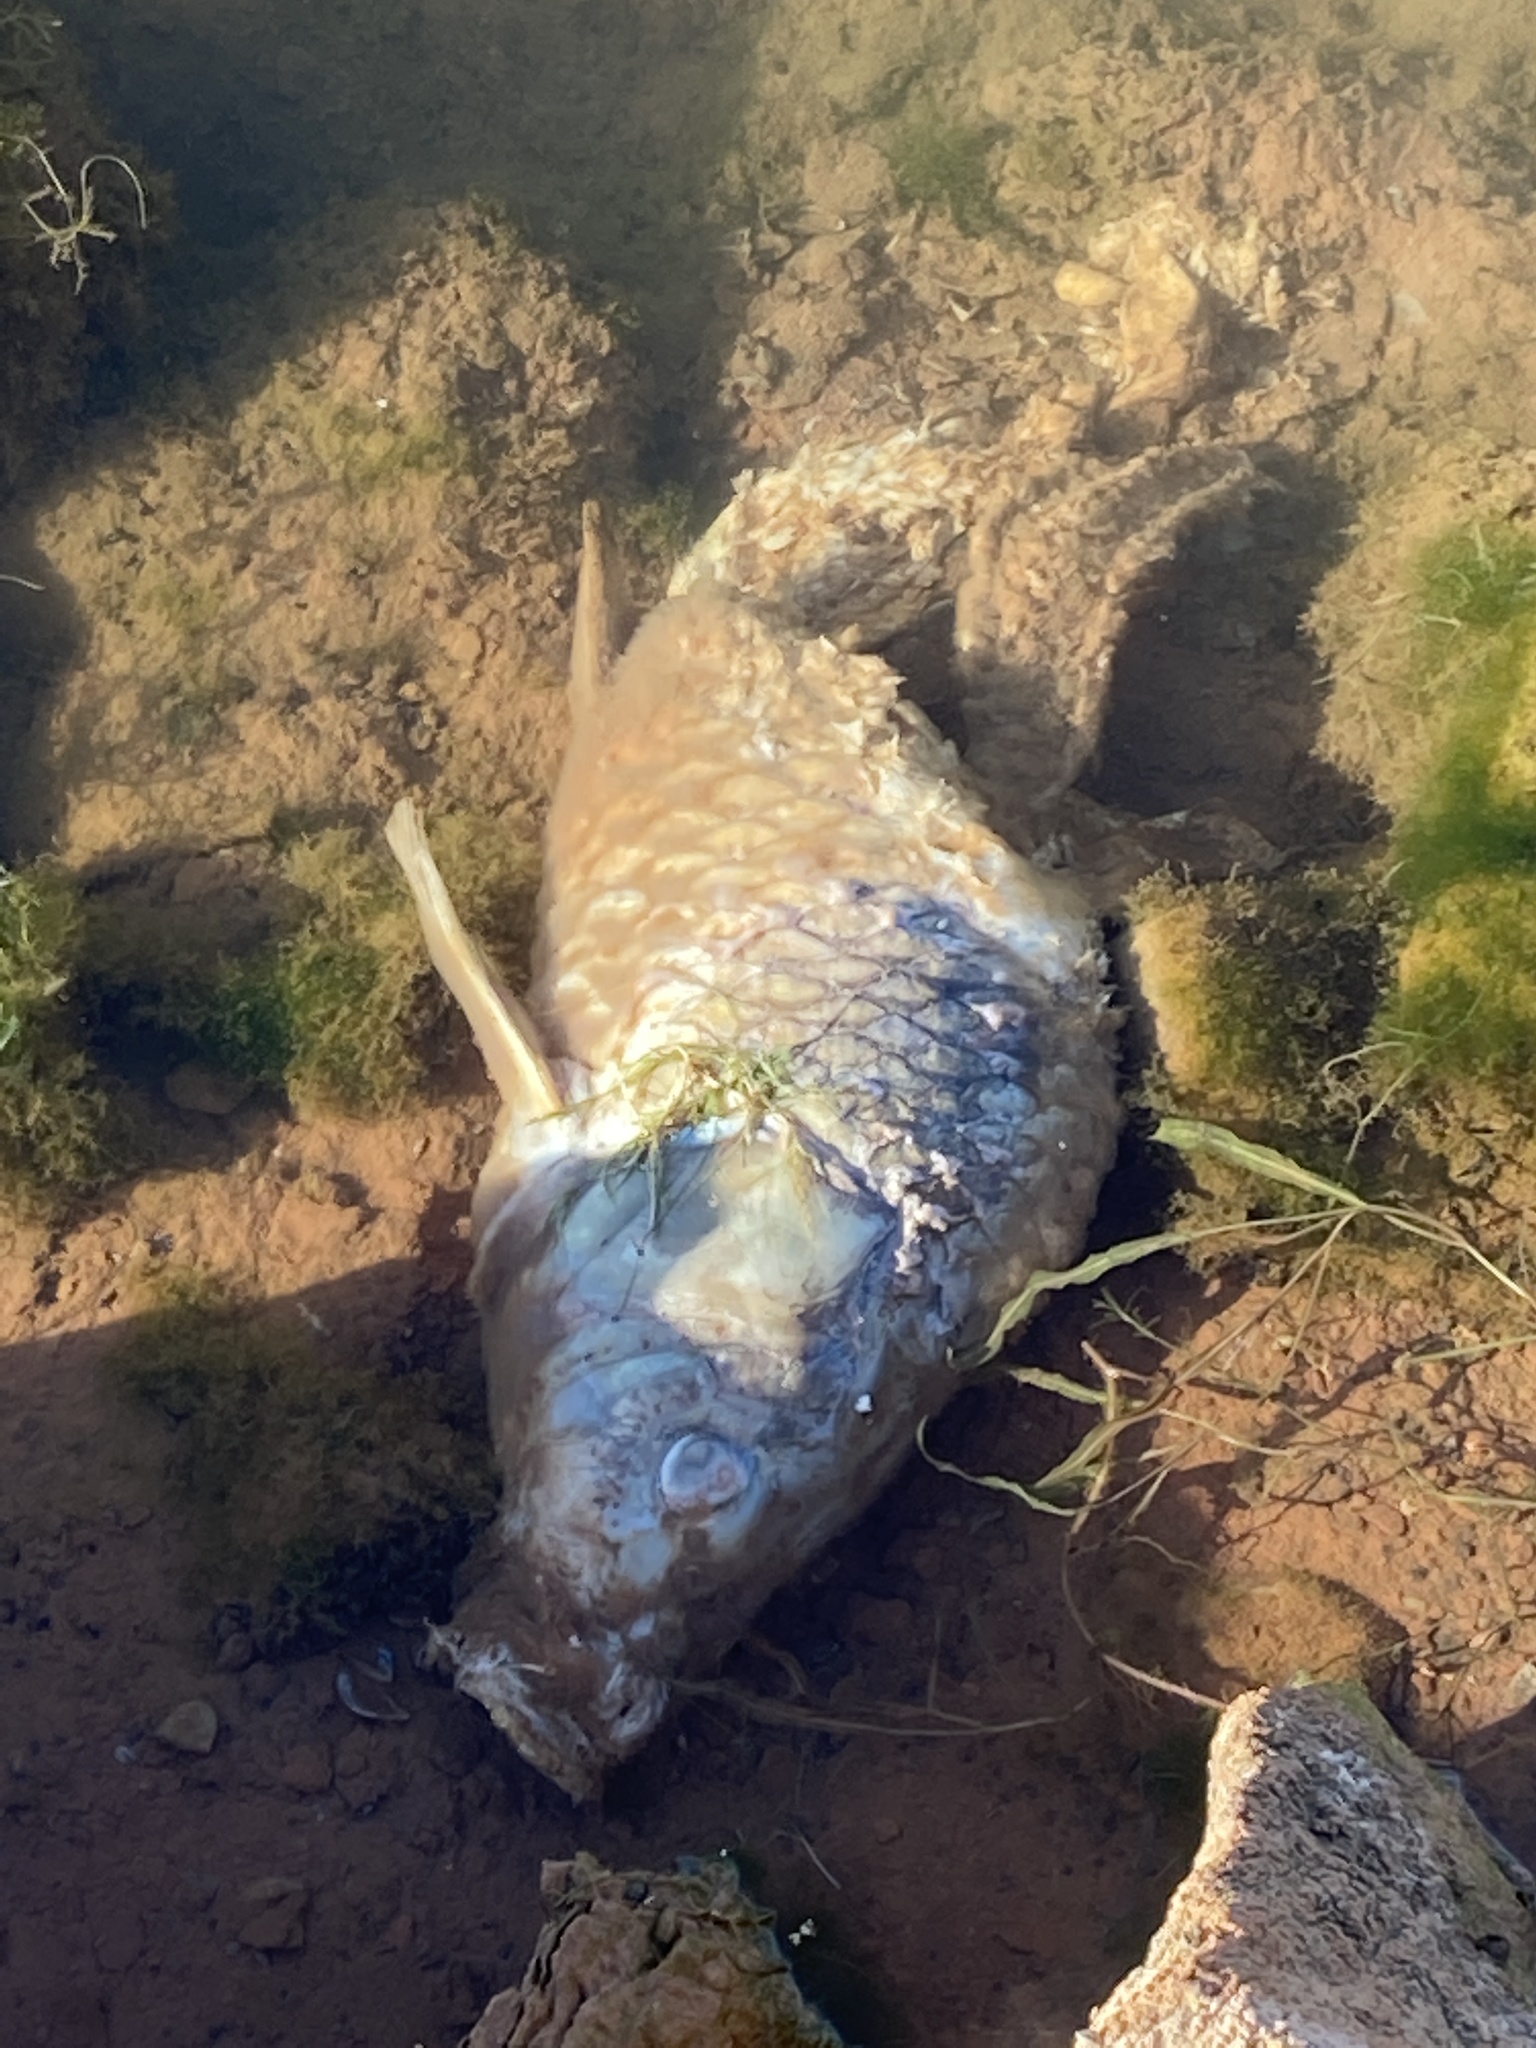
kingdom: Animalia
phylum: Chordata
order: Cypriniformes
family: Cyprinidae
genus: Cyprinus
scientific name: Cyprinus carpio
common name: Common carp
